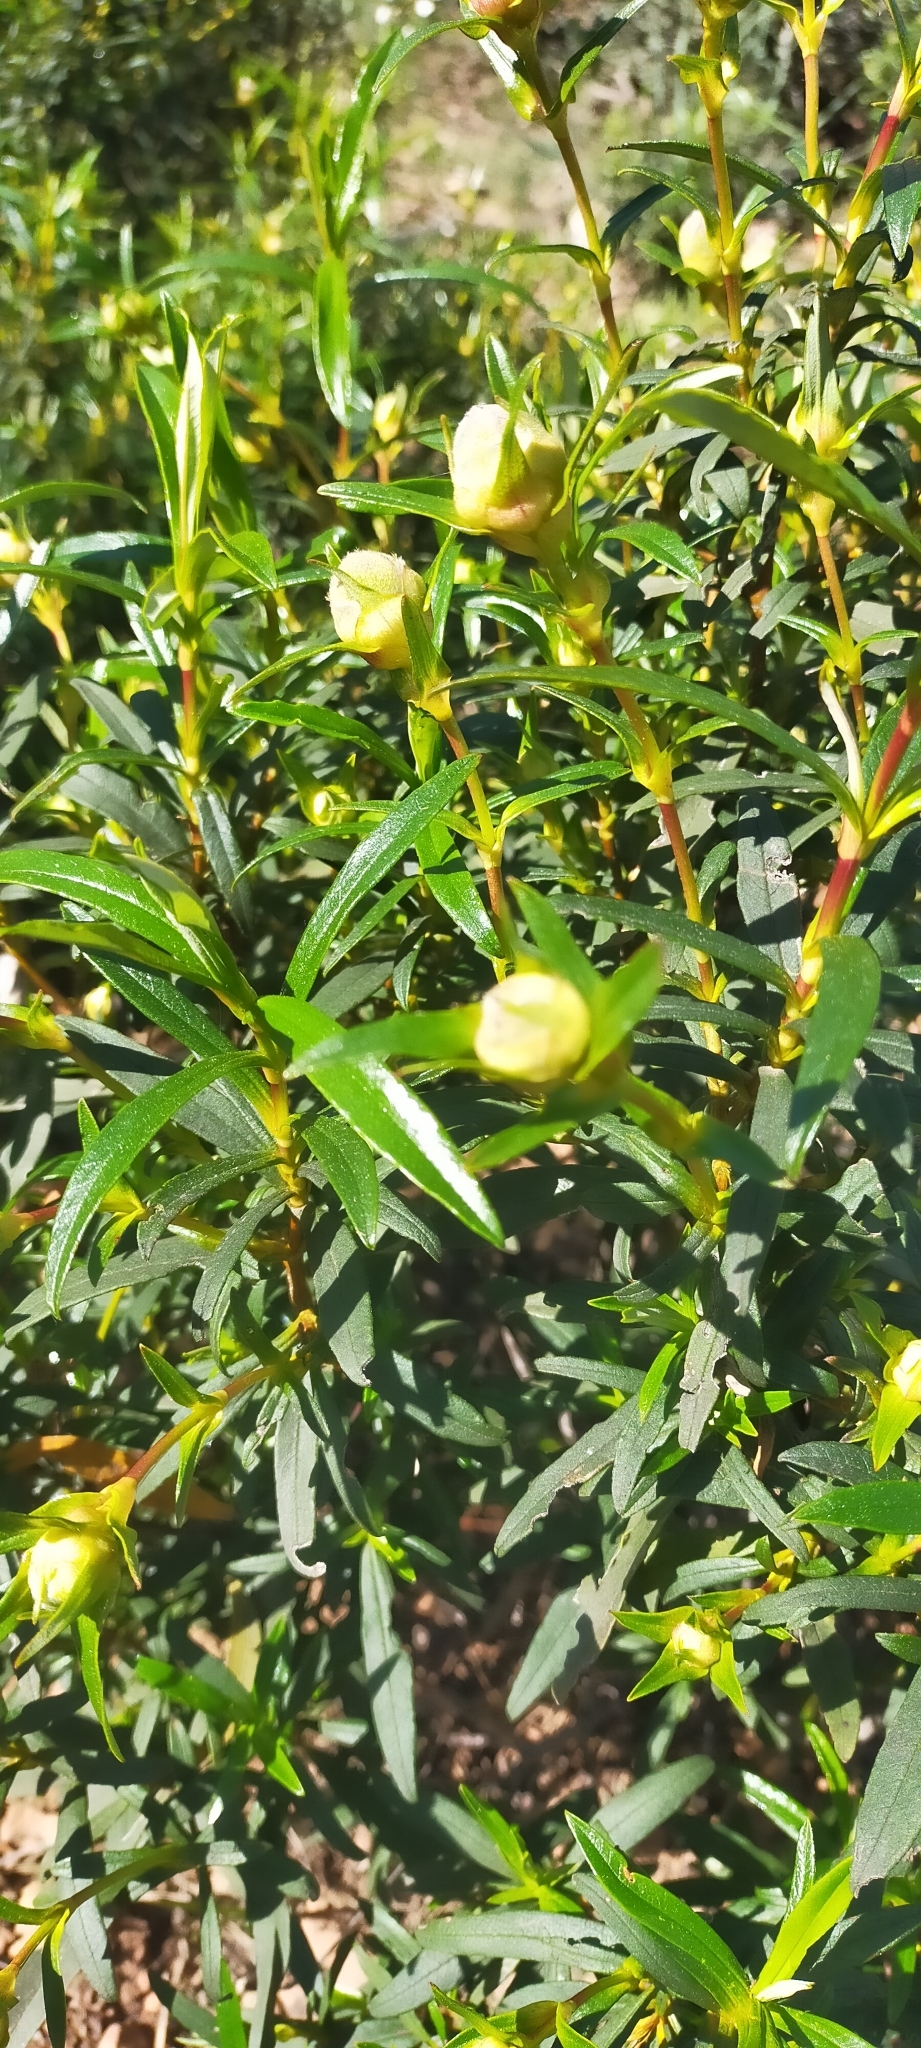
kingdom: Plantae
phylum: Tracheophyta
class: Magnoliopsida
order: Malvales
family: Cistaceae
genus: Cistus
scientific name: Cistus ladanifer
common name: Common gum cistus
